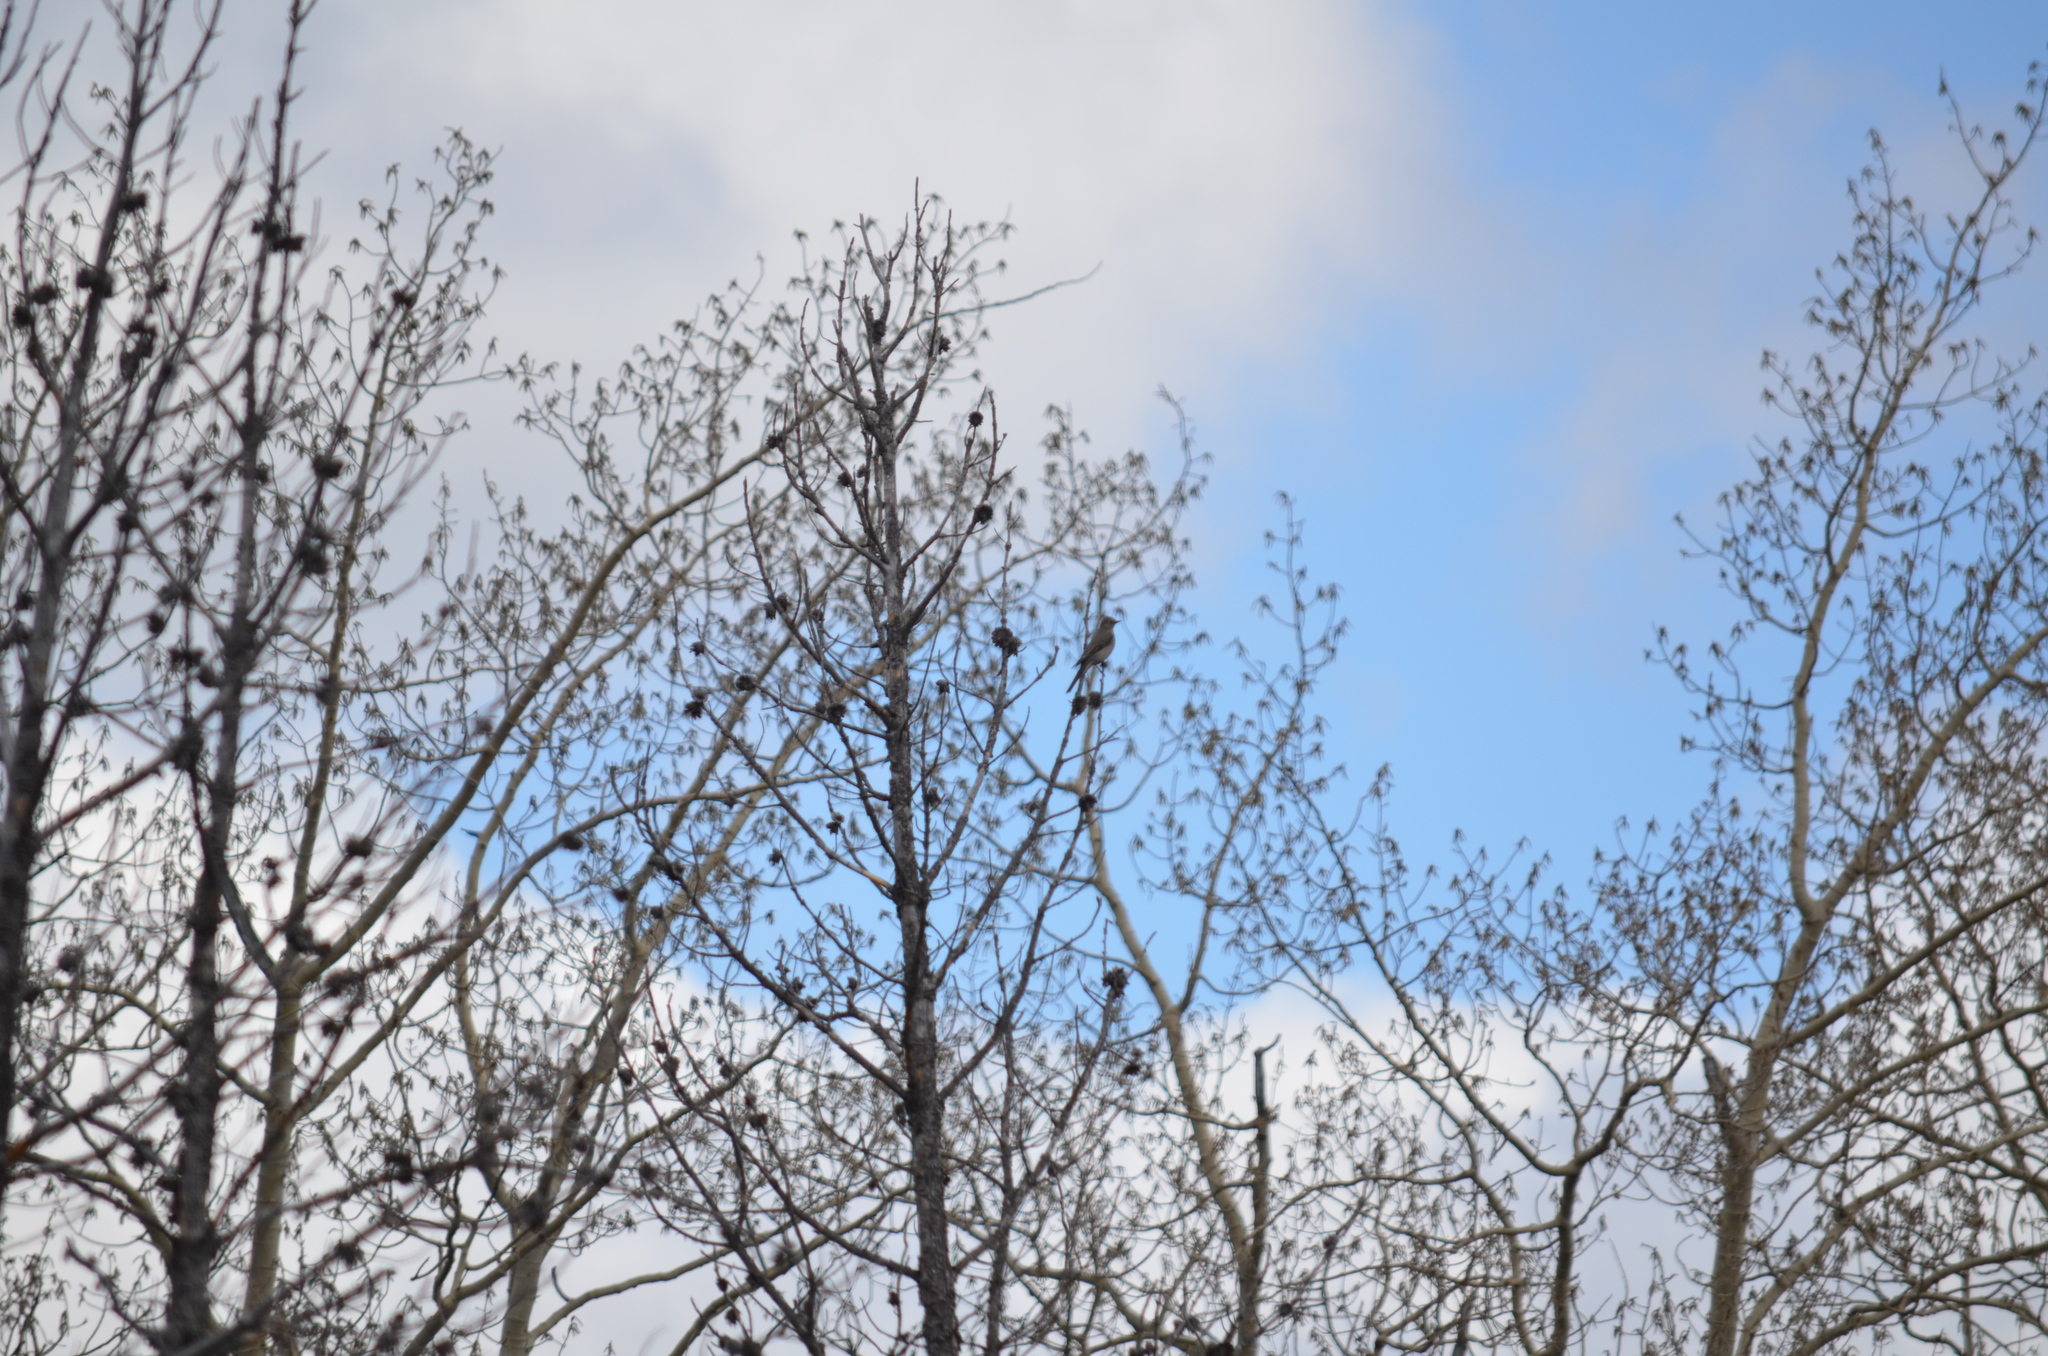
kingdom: Animalia
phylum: Chordata
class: Aves
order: Passeriformes
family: Turdidae
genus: Myadestes
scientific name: Myadestes townsendi
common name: Townsend's solitaire
